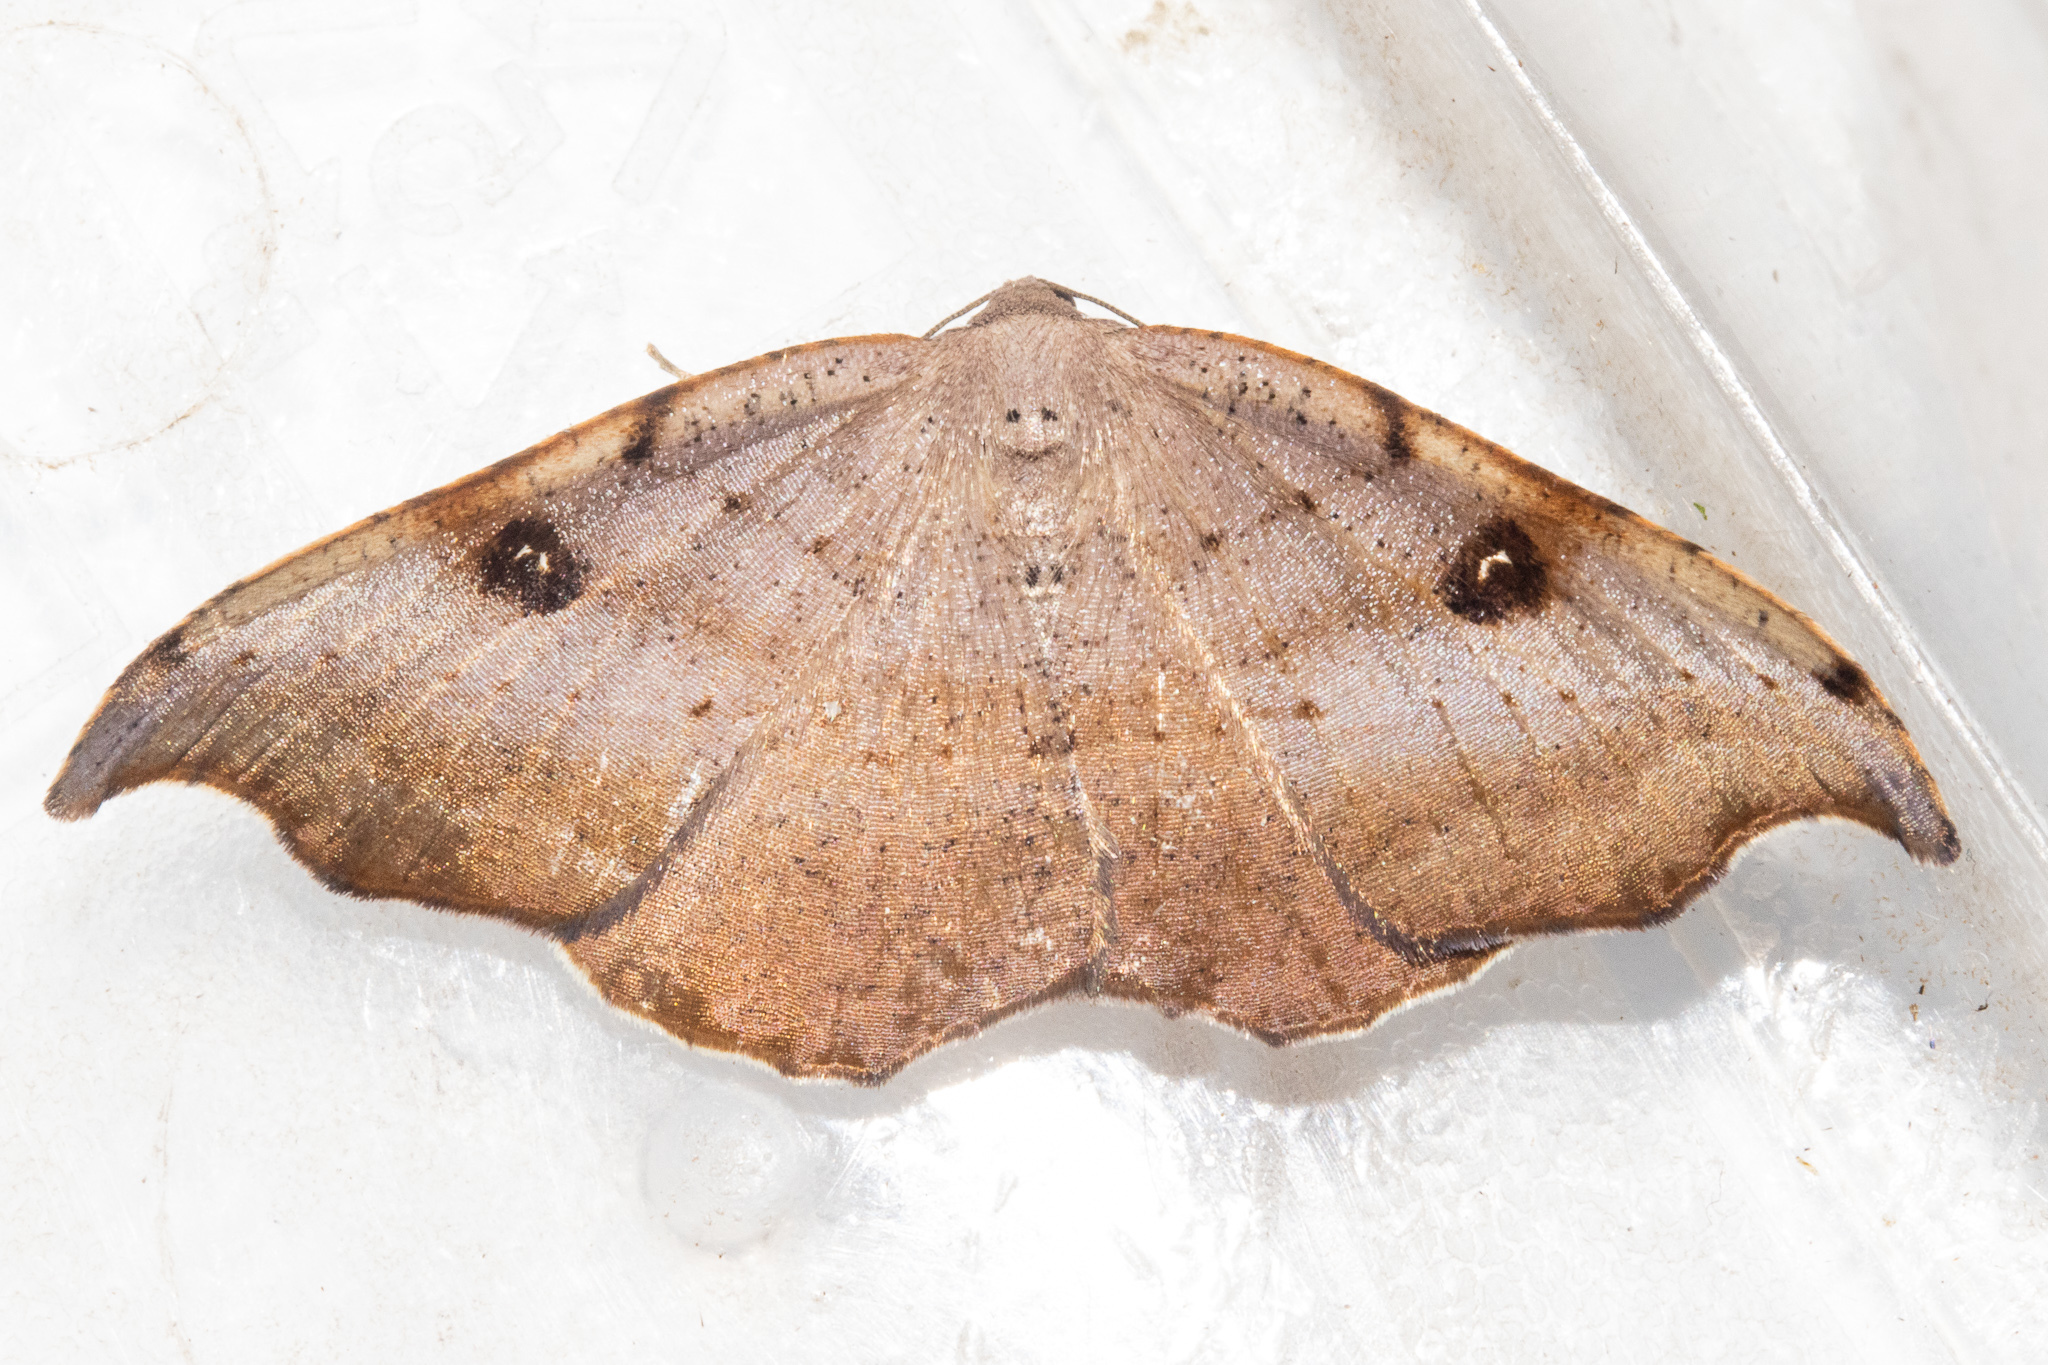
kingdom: Animalia
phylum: Arthropoda
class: Insecta
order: Lepidoptera
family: Geometridae
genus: Sarisa
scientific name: Sarisa muriferata
